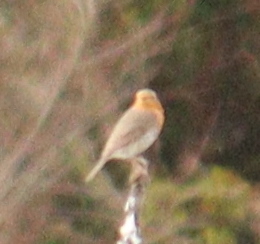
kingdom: Animalia
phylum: Chordata
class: Aves
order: Passeriformes
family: Muscicapidae
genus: Erithacus
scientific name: Erithacus rubecula
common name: European robin
